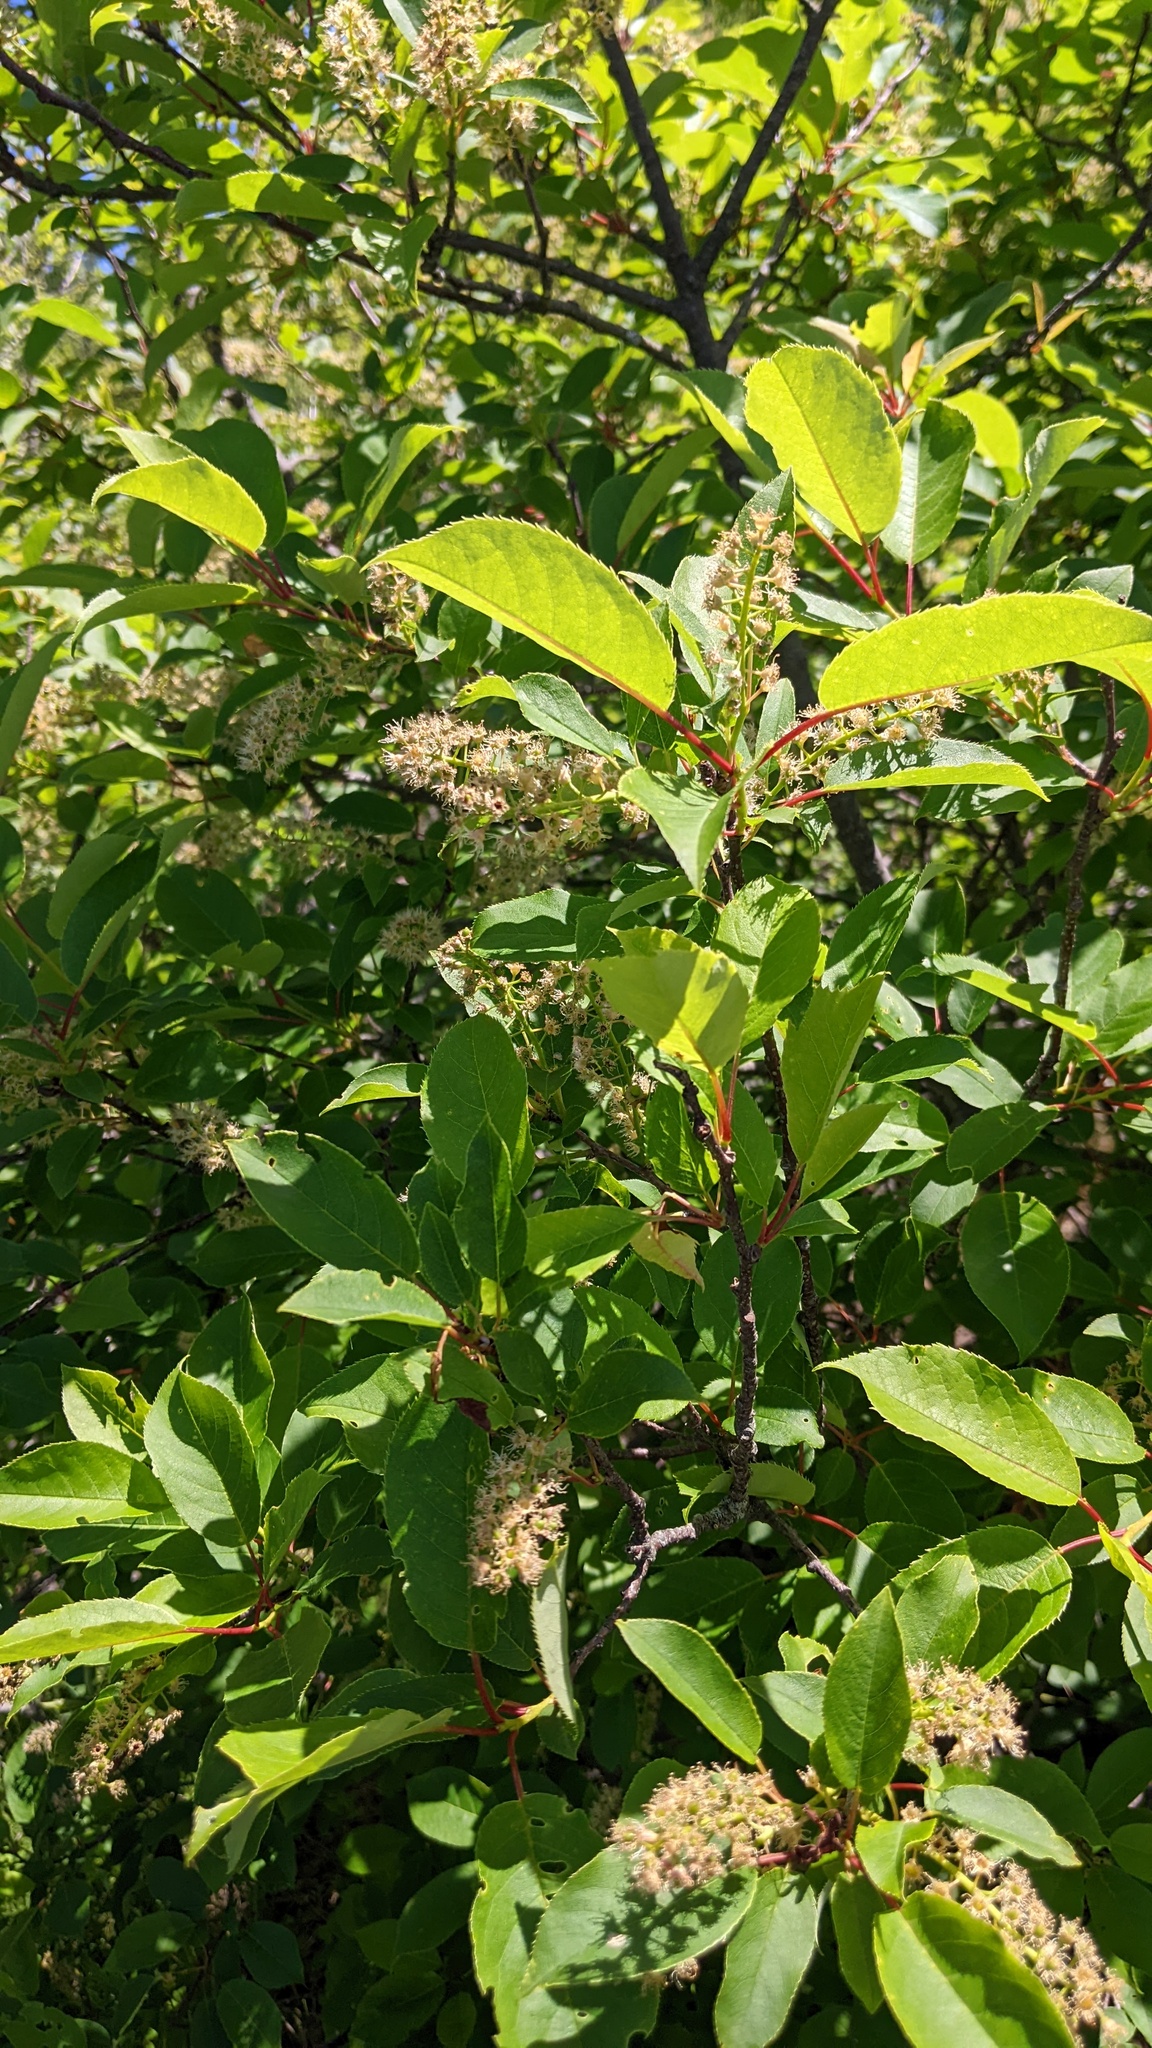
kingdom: Plantae
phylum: Tracheophyta
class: Magnoliopsida
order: Rosales
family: Rosaceae
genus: Prunus
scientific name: Prunus virginiana
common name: Chokecherry
